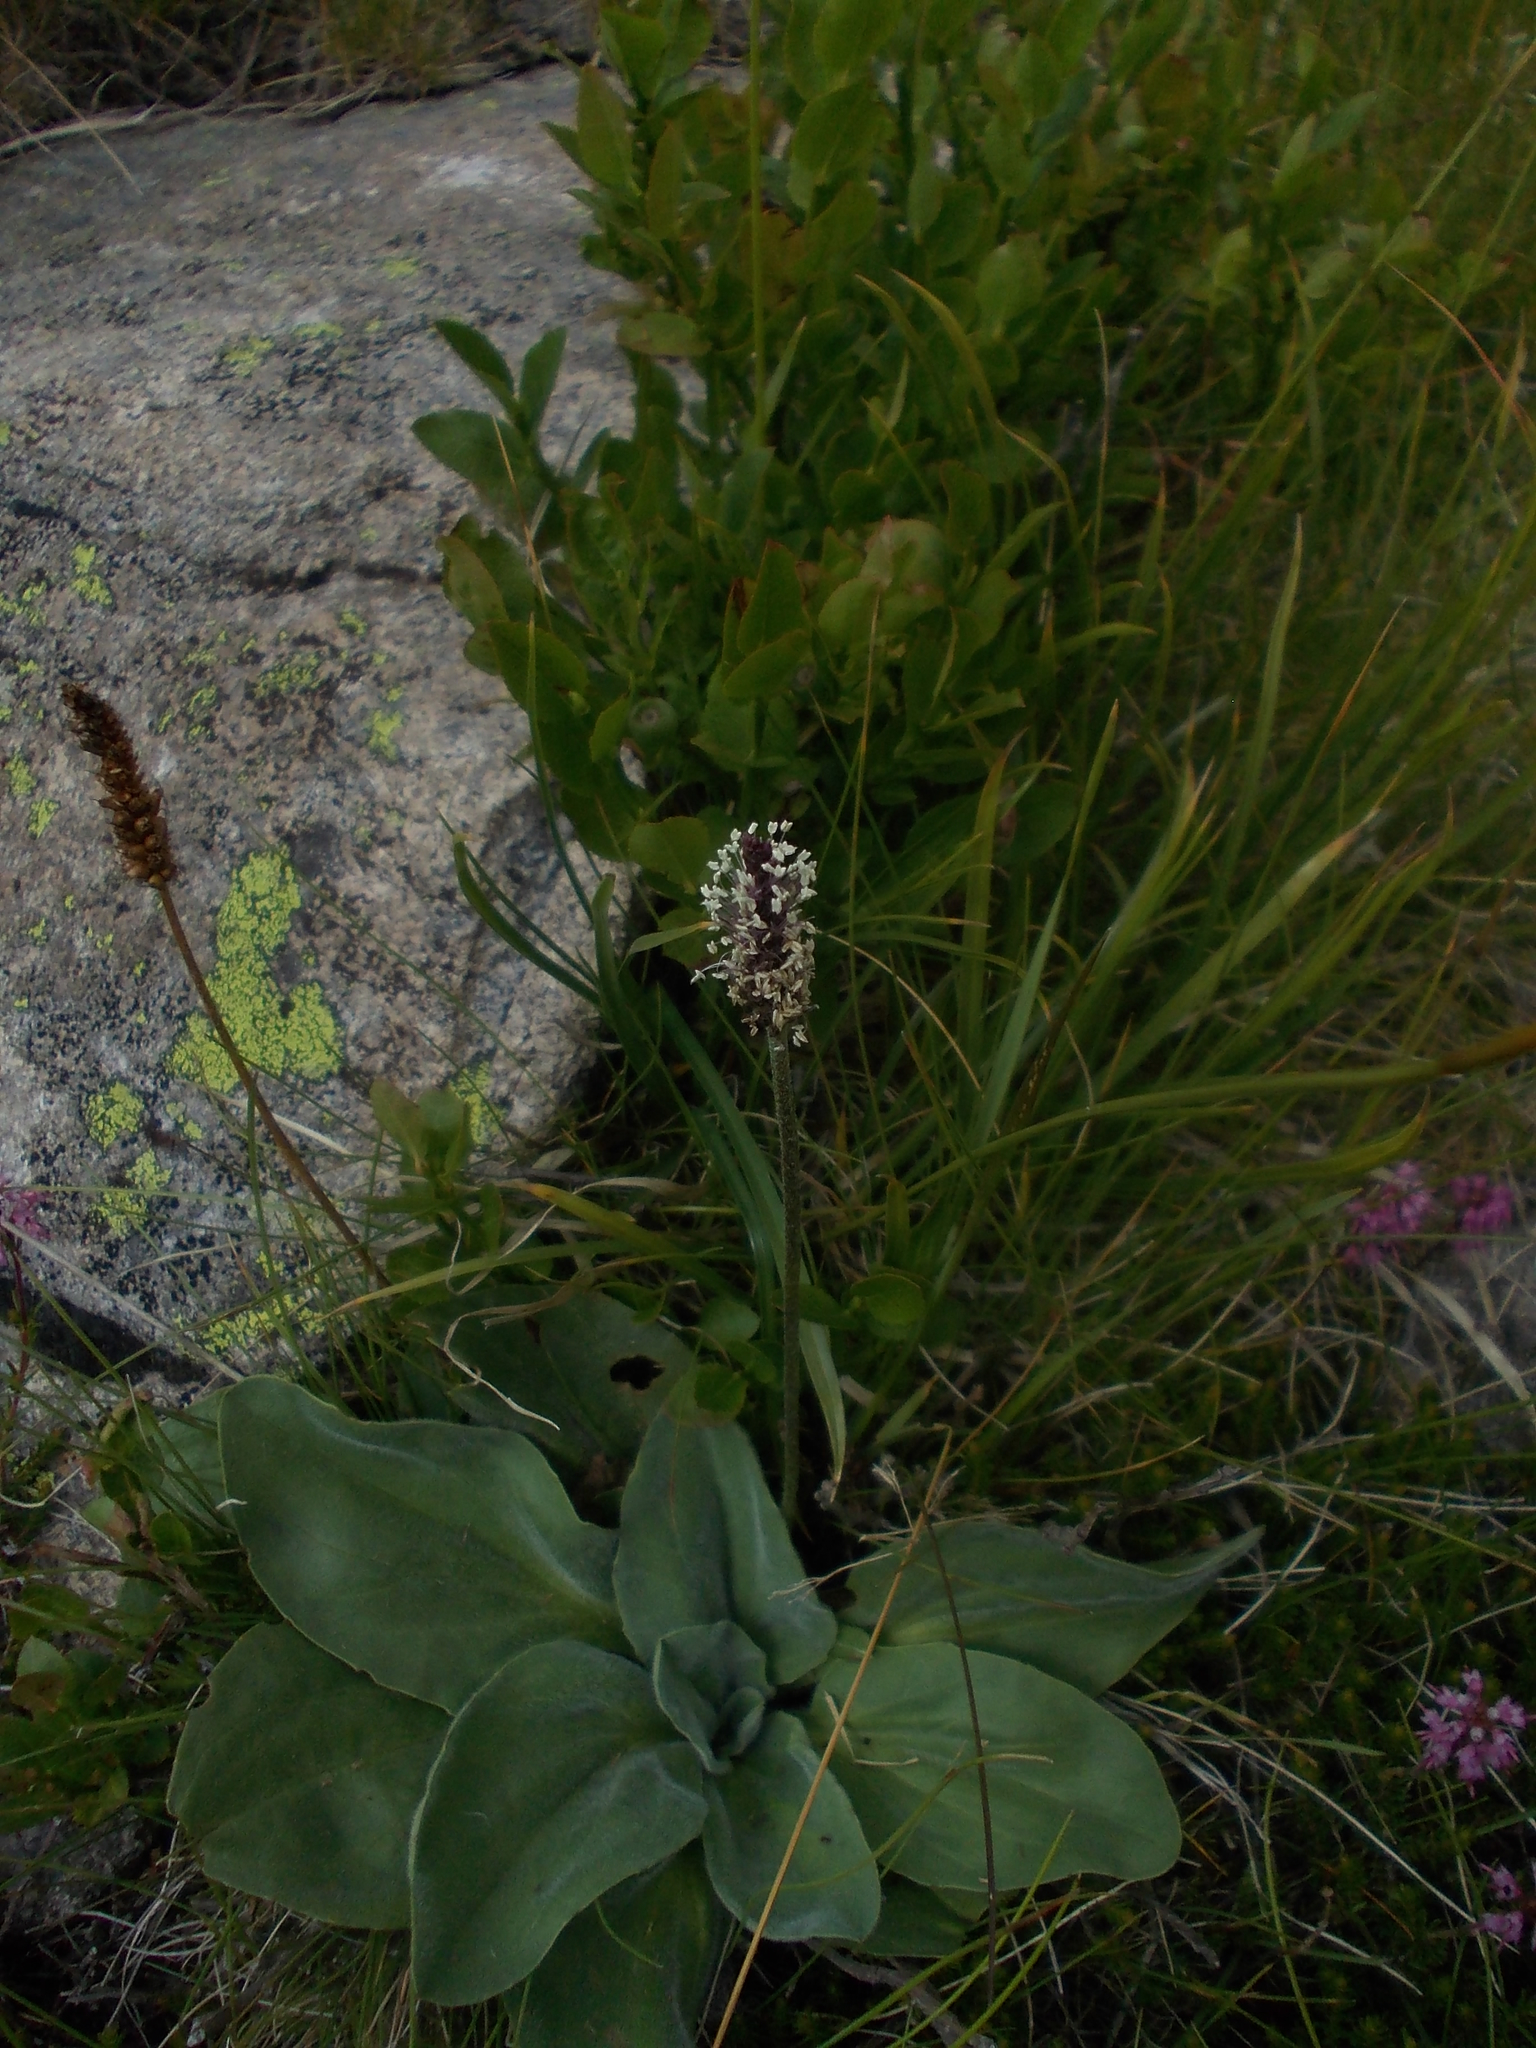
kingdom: Plantae
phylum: Tracheophyta
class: Magnoliopsida
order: Lamiales
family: Plantaginaceae
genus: Plantago
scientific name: Plantago gentianoides
